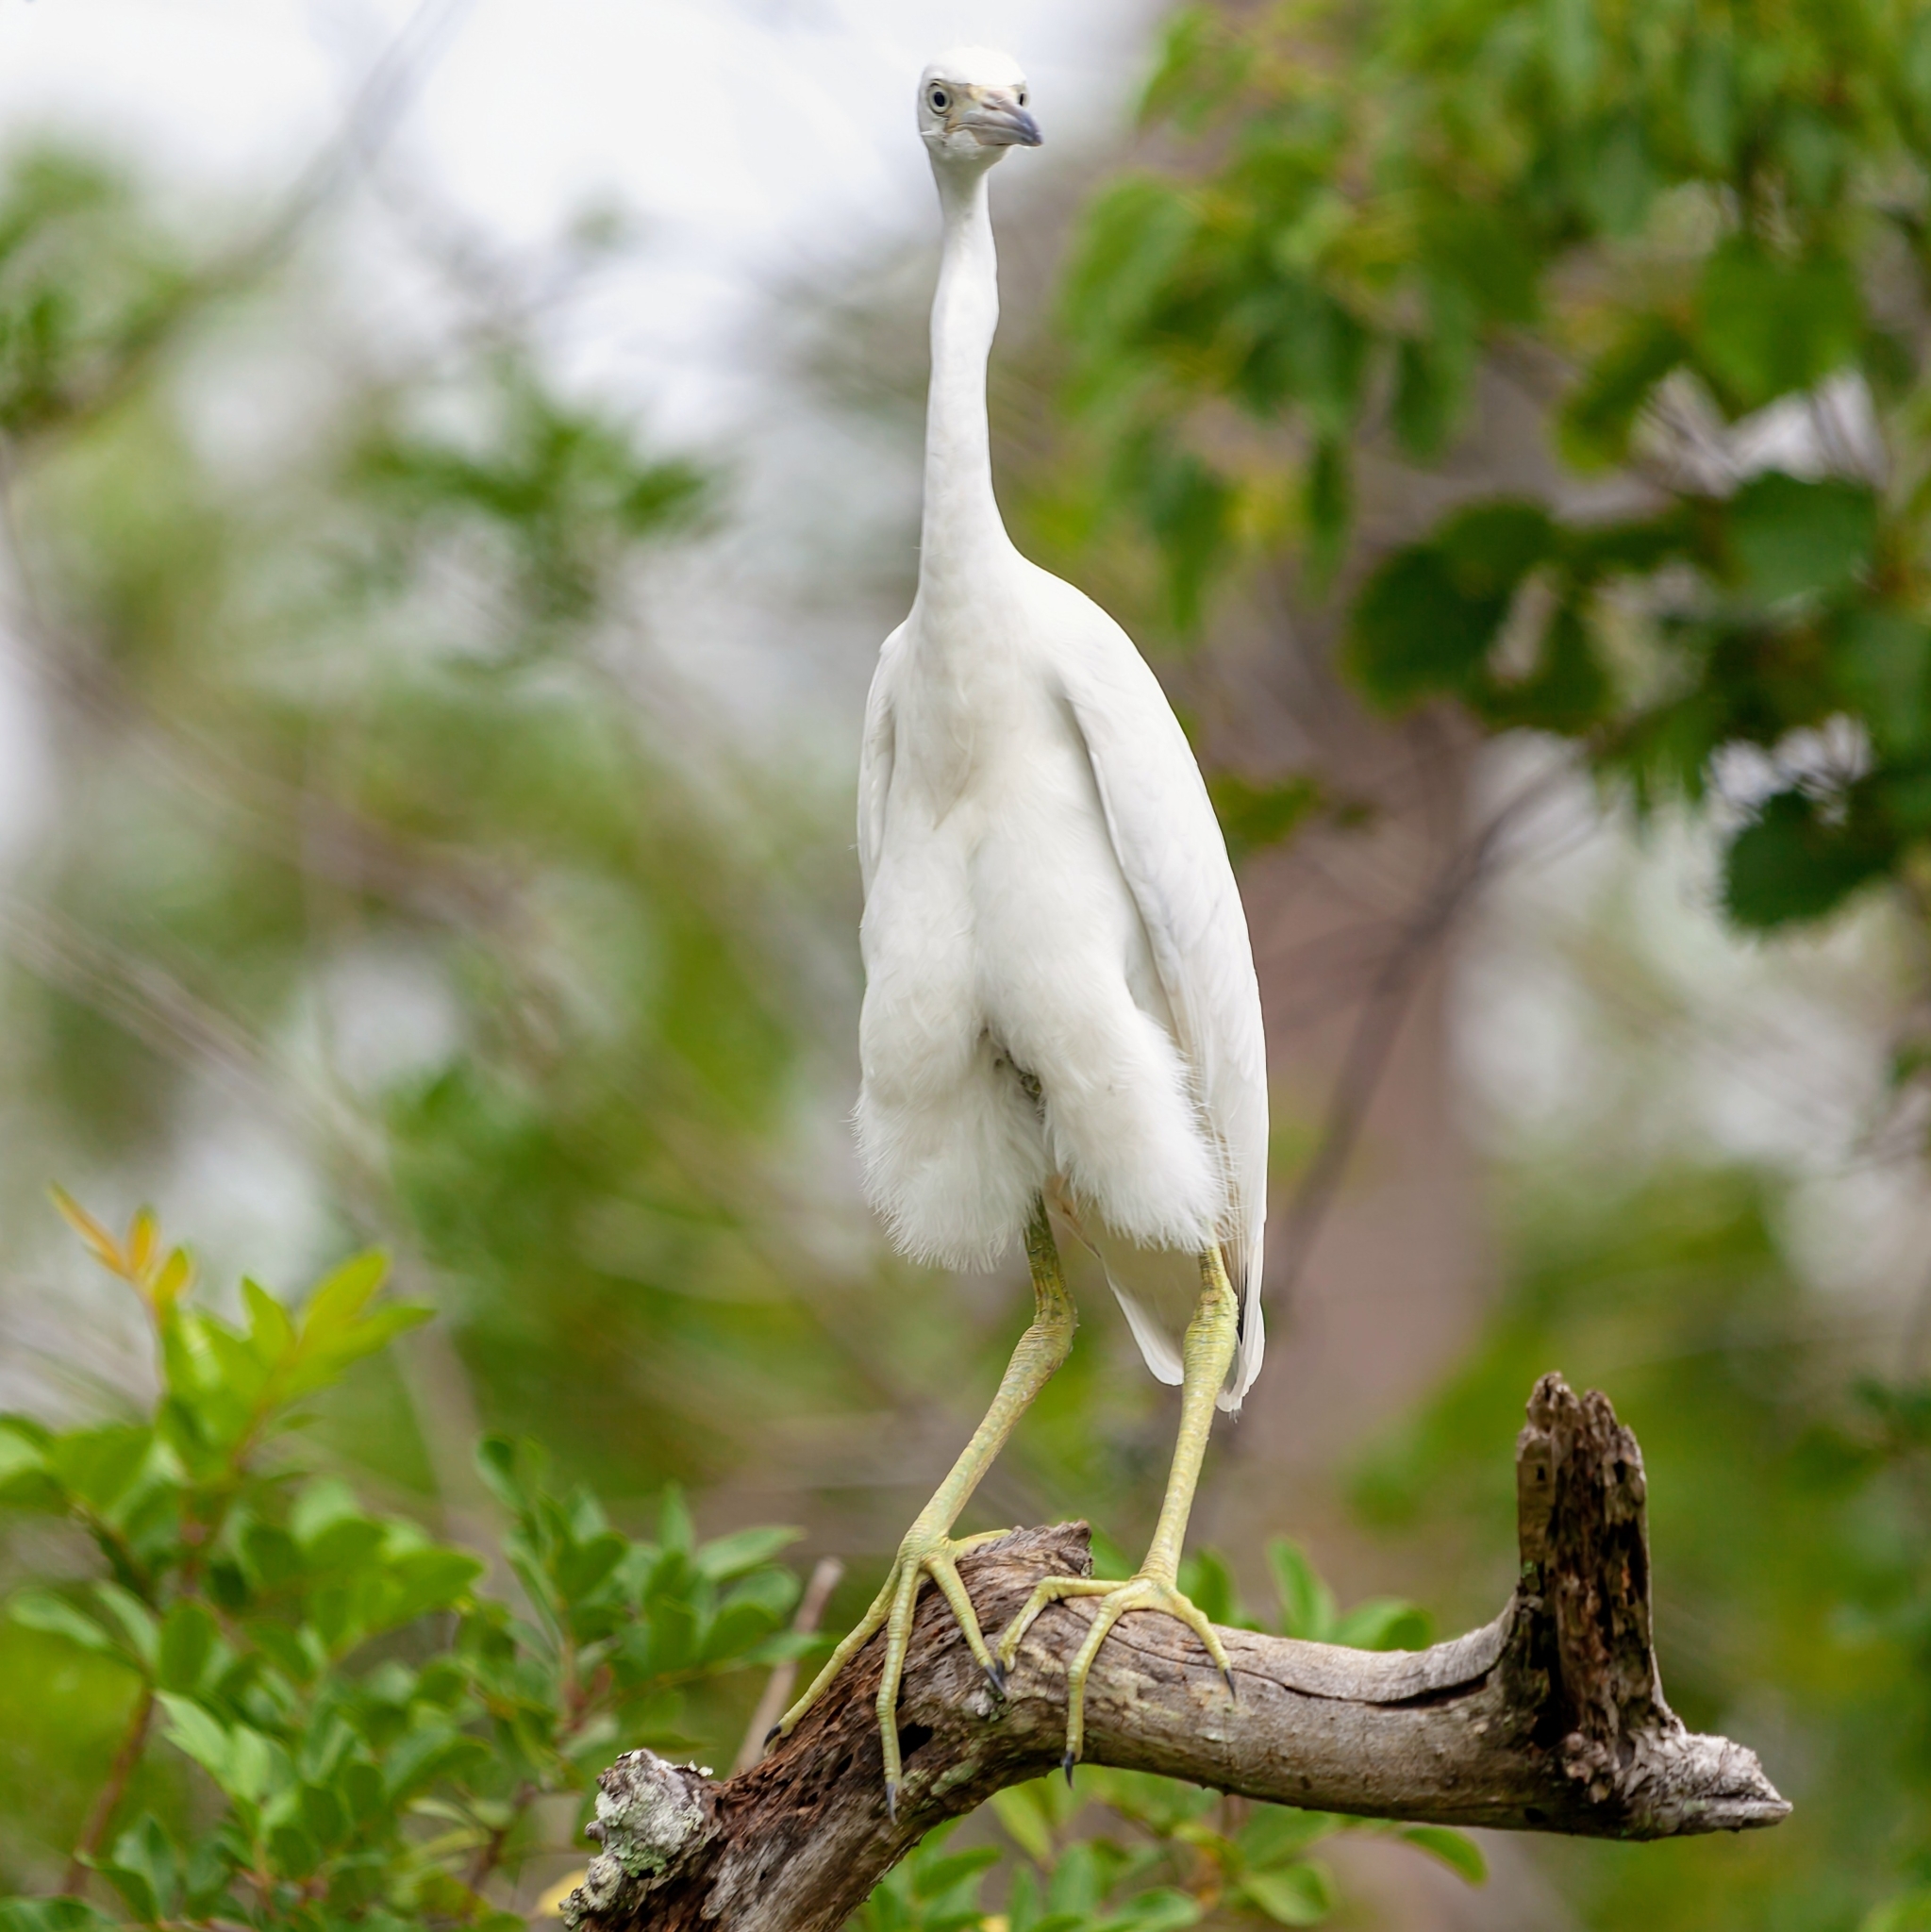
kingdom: Animalia
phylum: Chordata
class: Aves
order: Pelecaniformes
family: Ardeidae
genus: Egretta
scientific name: Egretta caerulea
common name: Little blue heron
